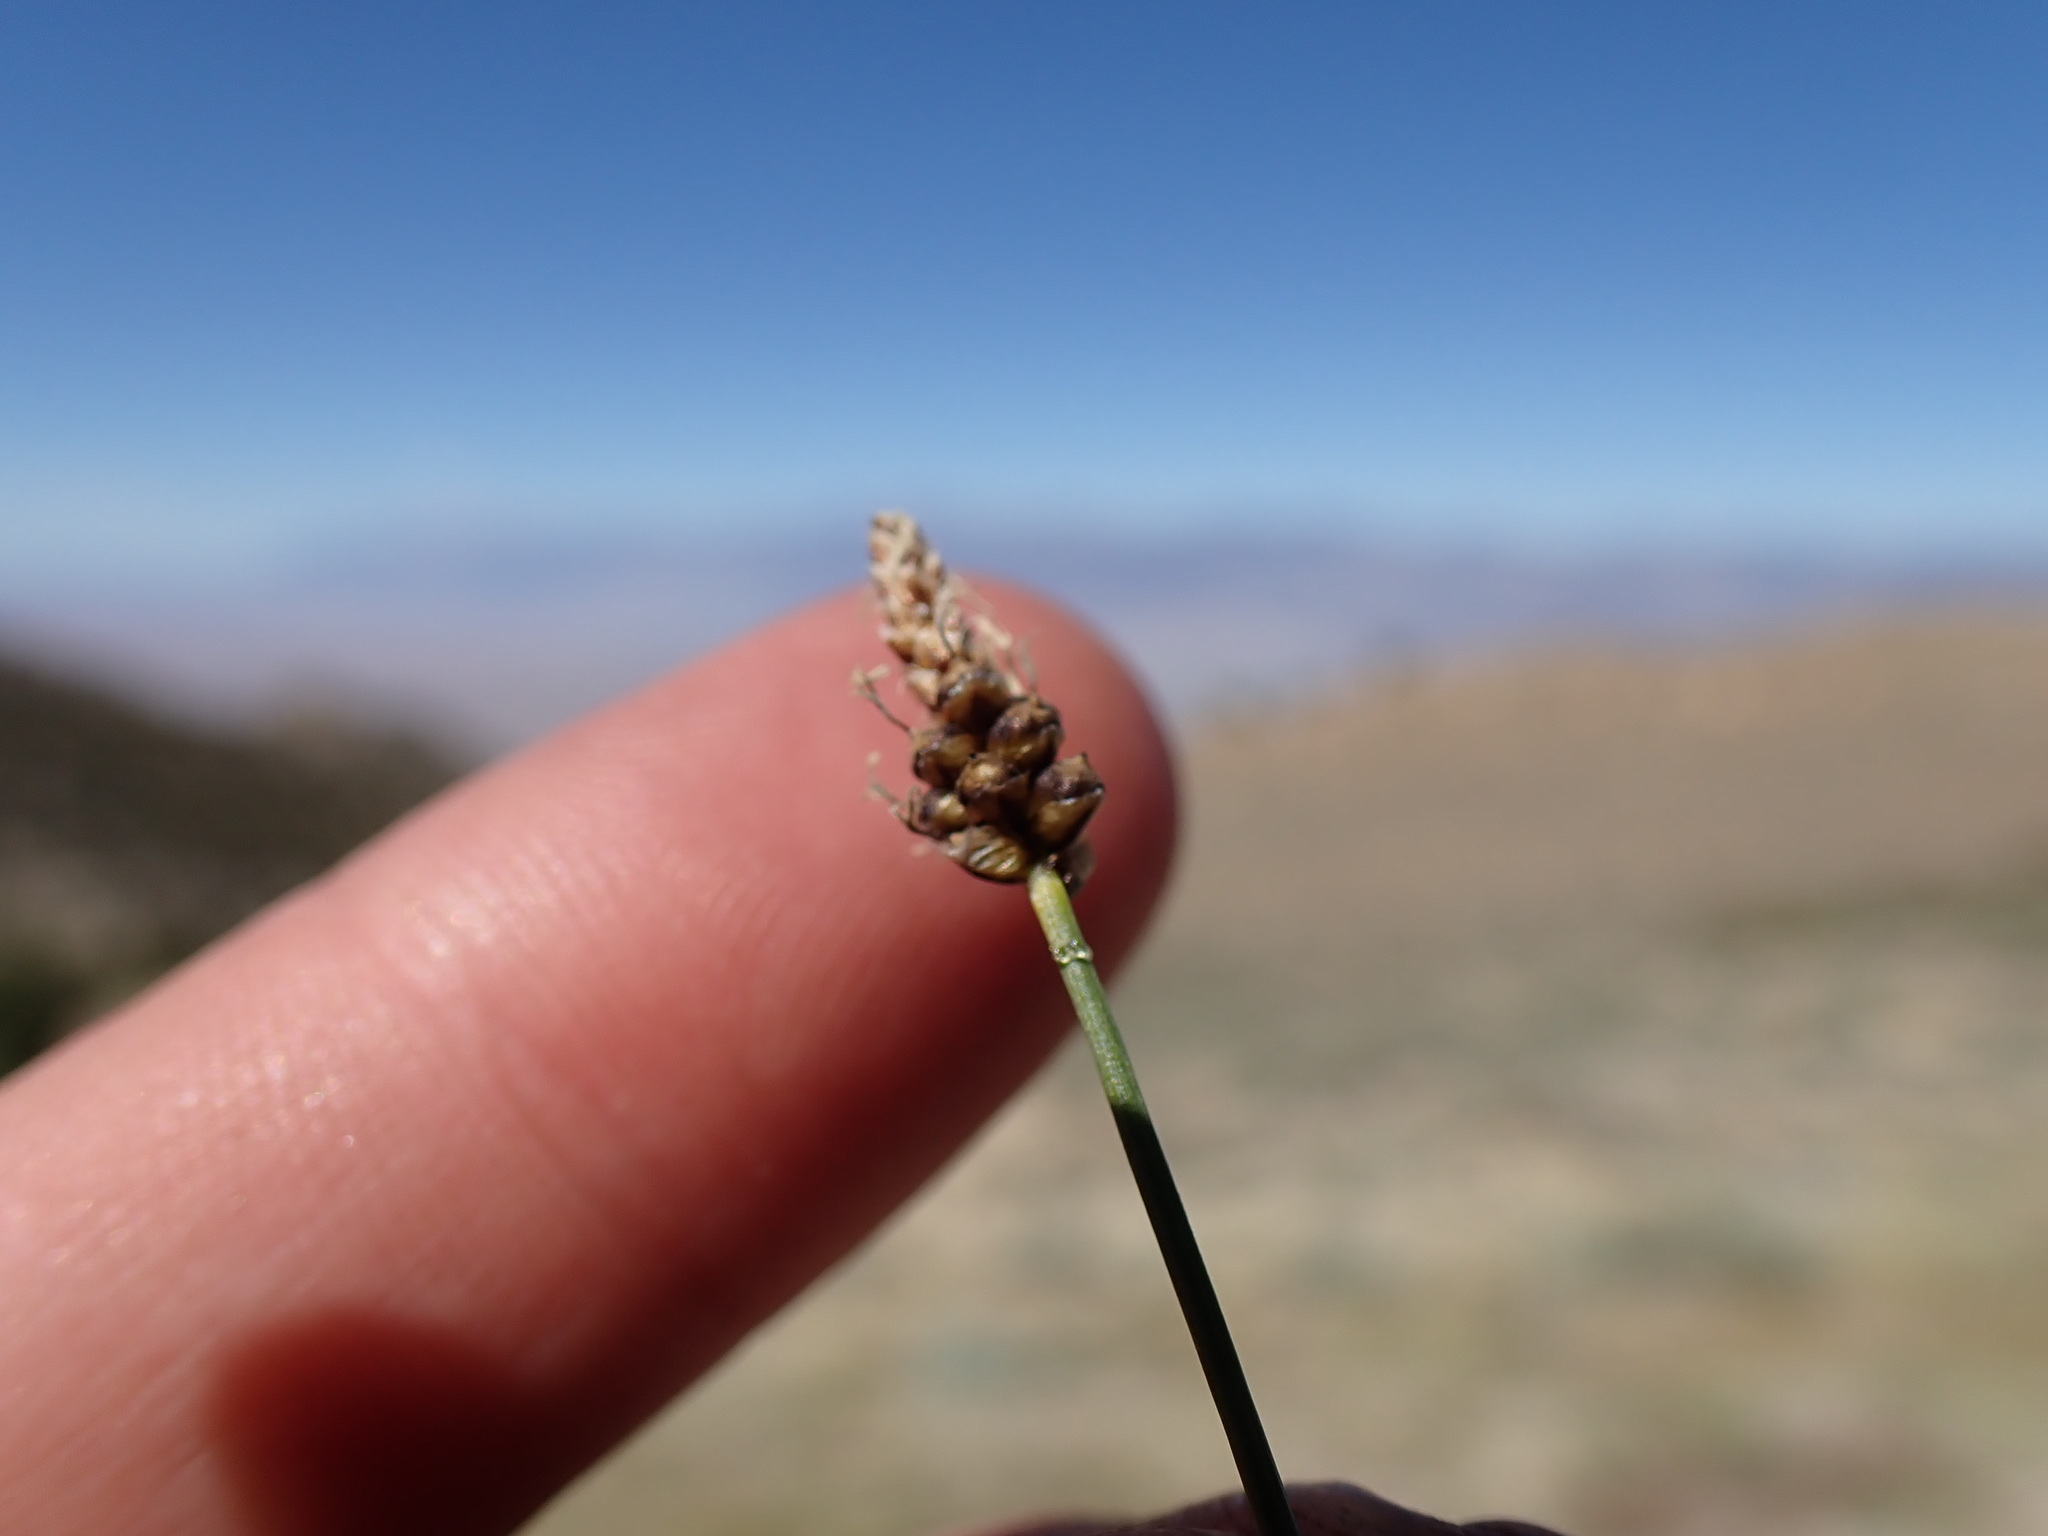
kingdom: Plantae
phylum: Tracheophyta
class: Liliopsida
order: Poales
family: Cyperaceae
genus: Carex
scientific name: Carex filifolia
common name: Threadleaf sedge
